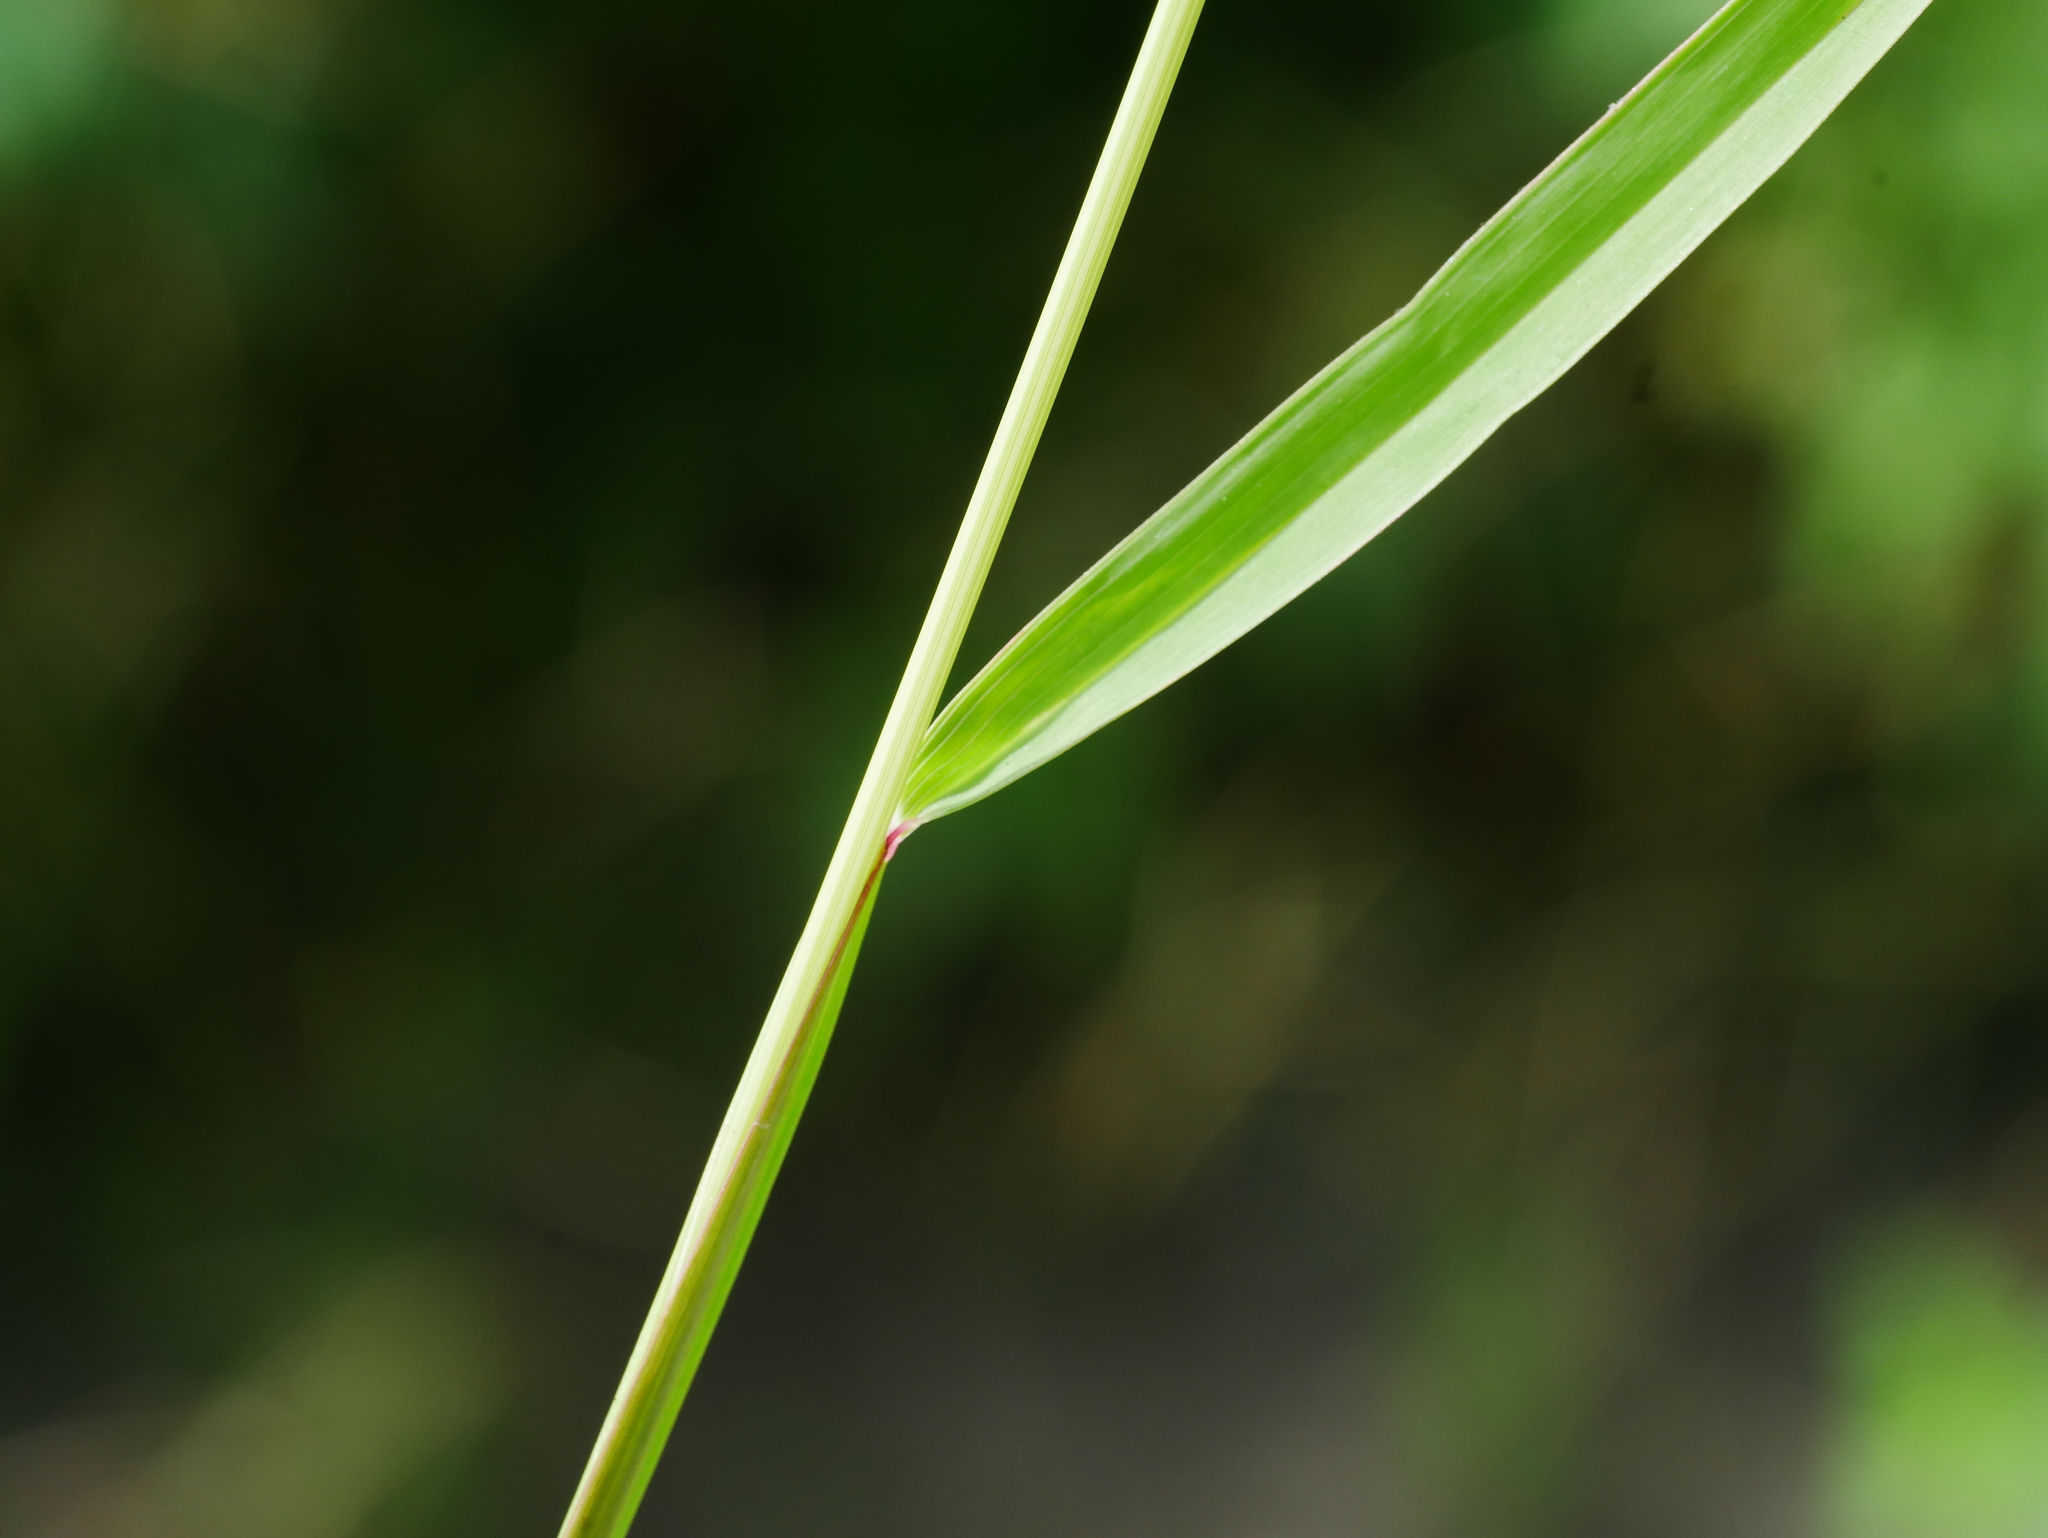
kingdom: Plantae
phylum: Tracheophyta
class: Liliopsida
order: Poales
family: Poaceae
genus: Chloris
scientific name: Chloris divaricata
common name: Spreading windmill grass
